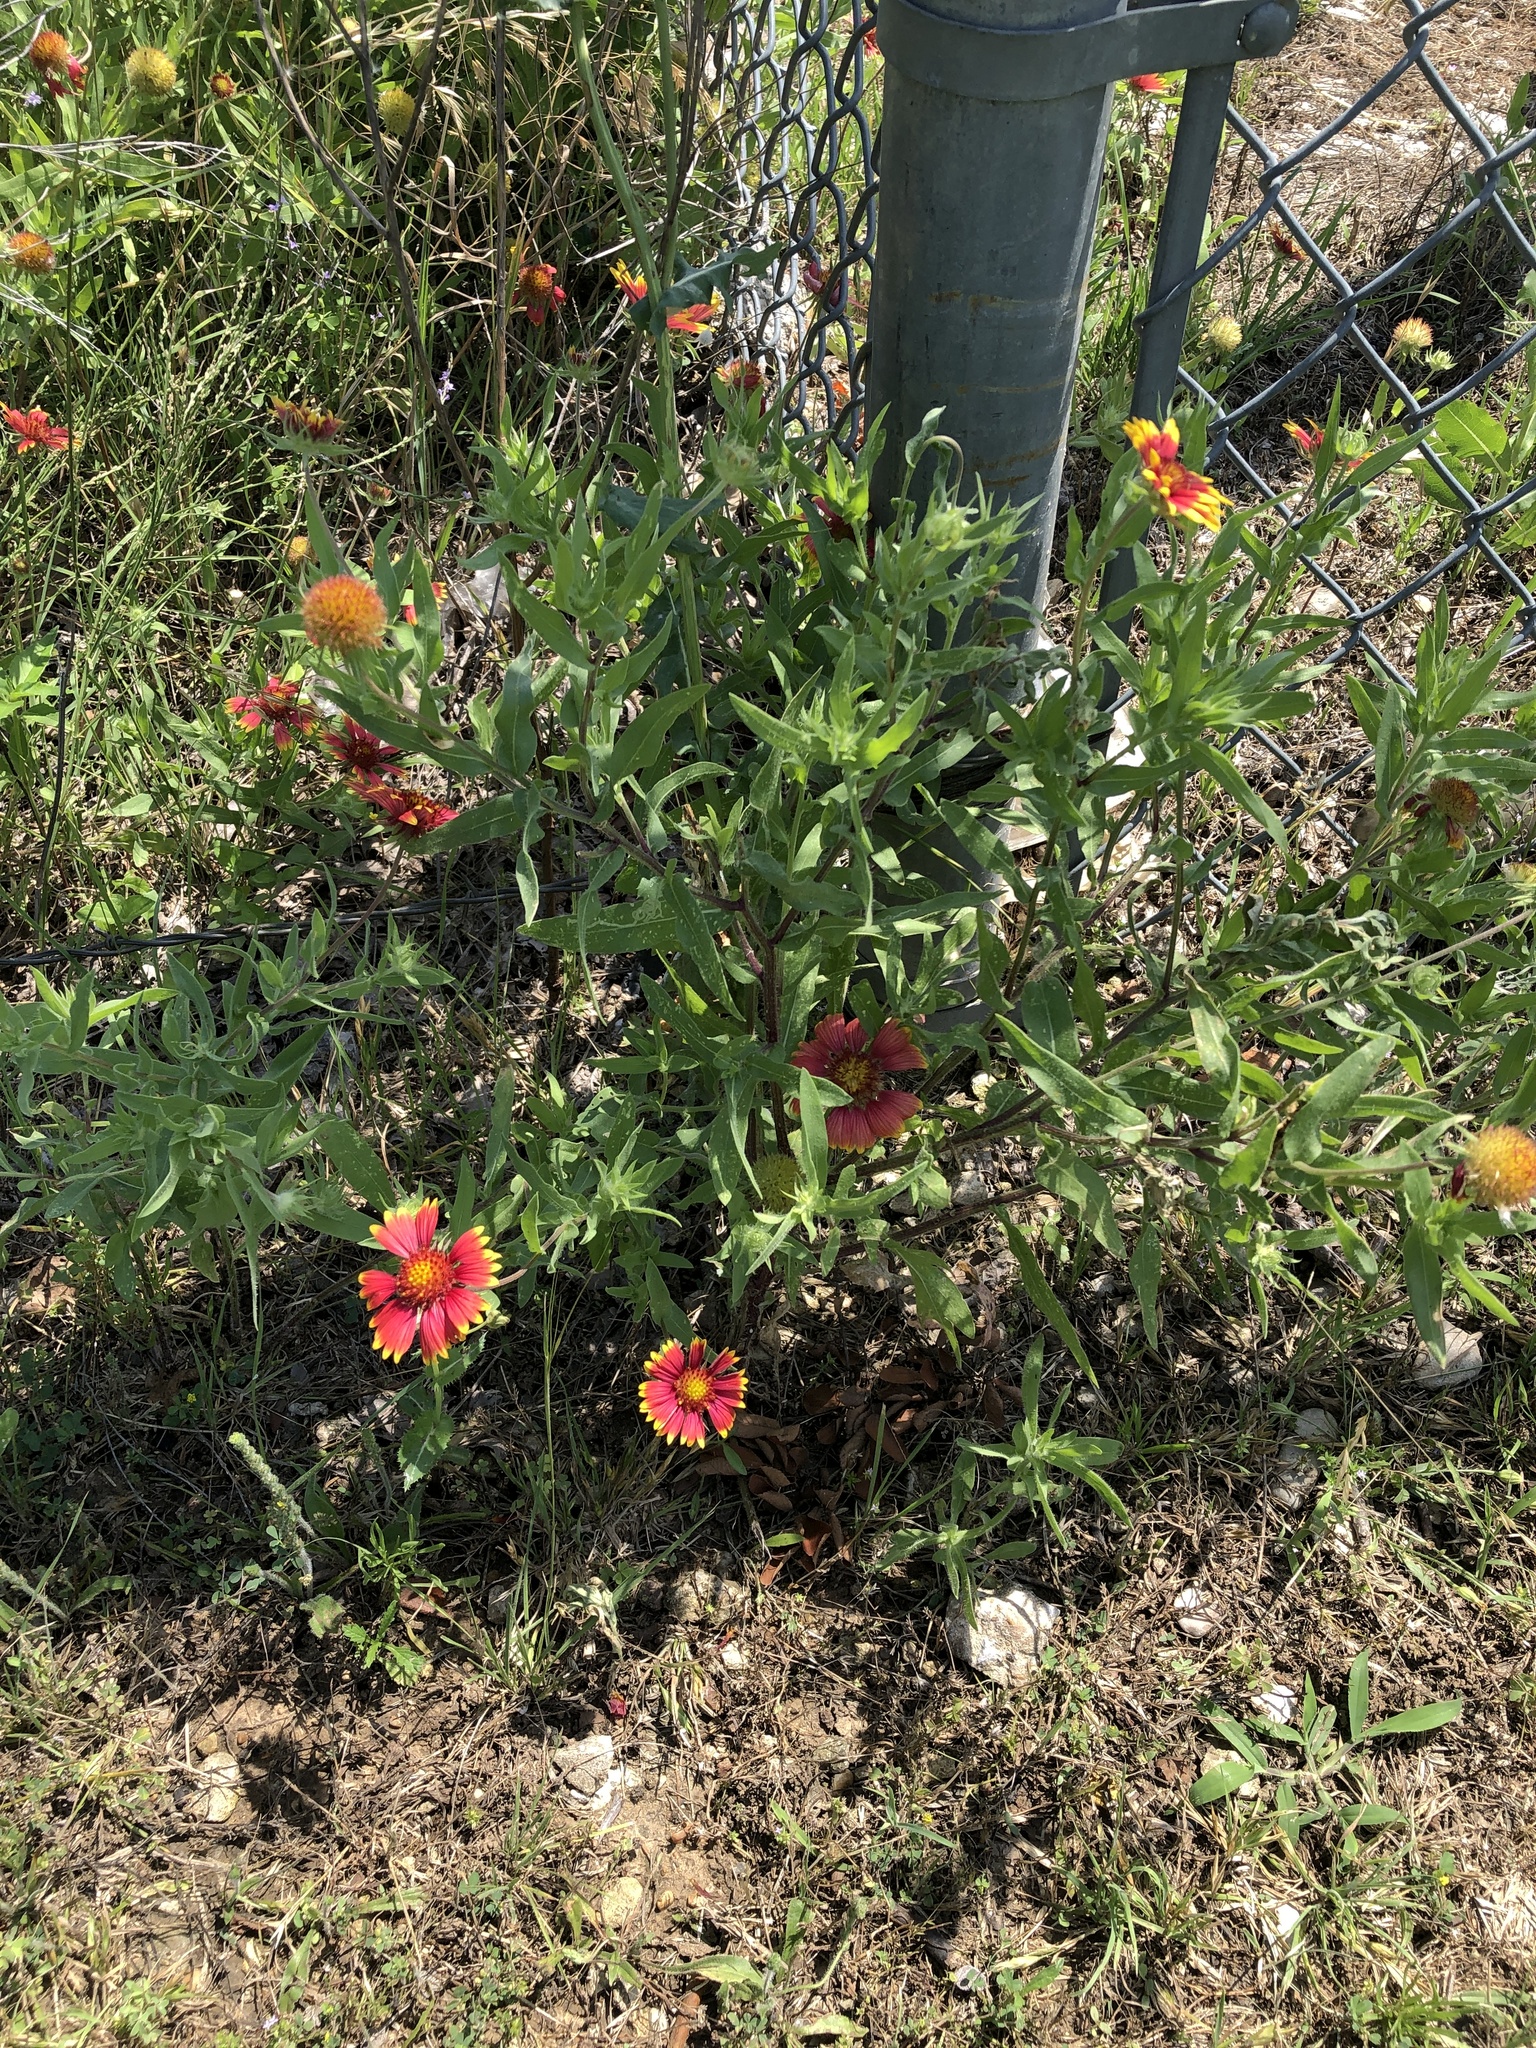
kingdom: Plantae
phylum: Tracheophyta
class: Magnoliopsida
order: Asterales
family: Asteraceae
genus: Gaillardia
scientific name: Gaillardia pulchella
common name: Firewheel
